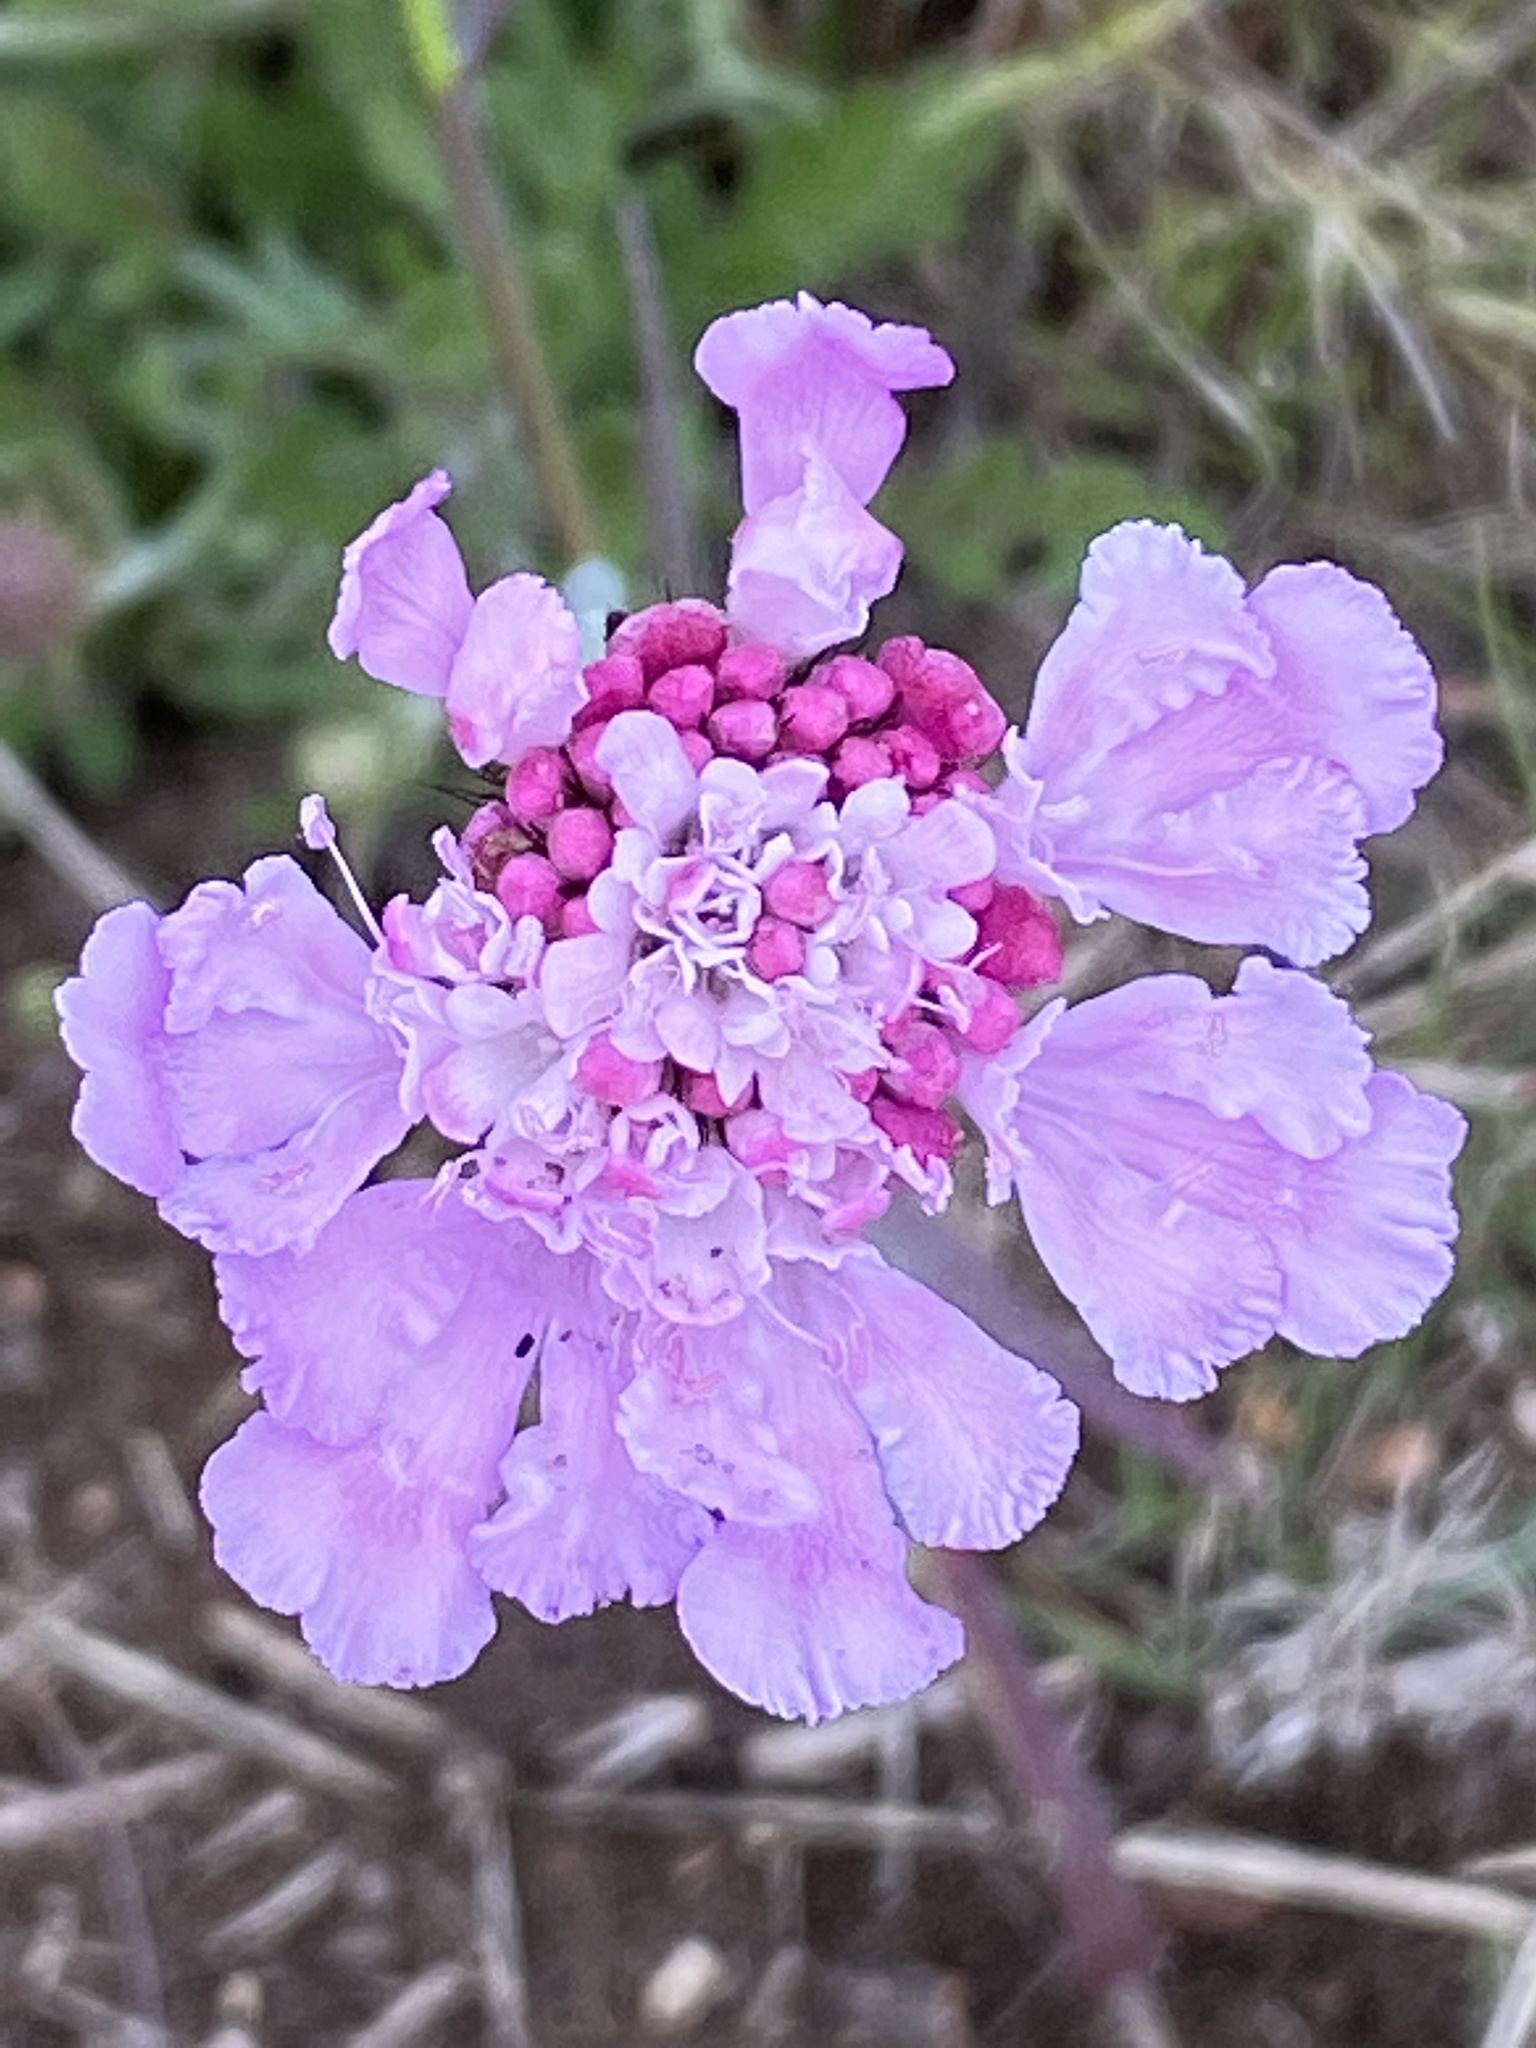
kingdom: Plantae
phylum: Tracheophyta
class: Magnoliopsida
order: Dipsacales
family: Caprifoliaceae
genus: Scabiosa
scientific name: Scabiosa columbaria
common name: Small scabious
